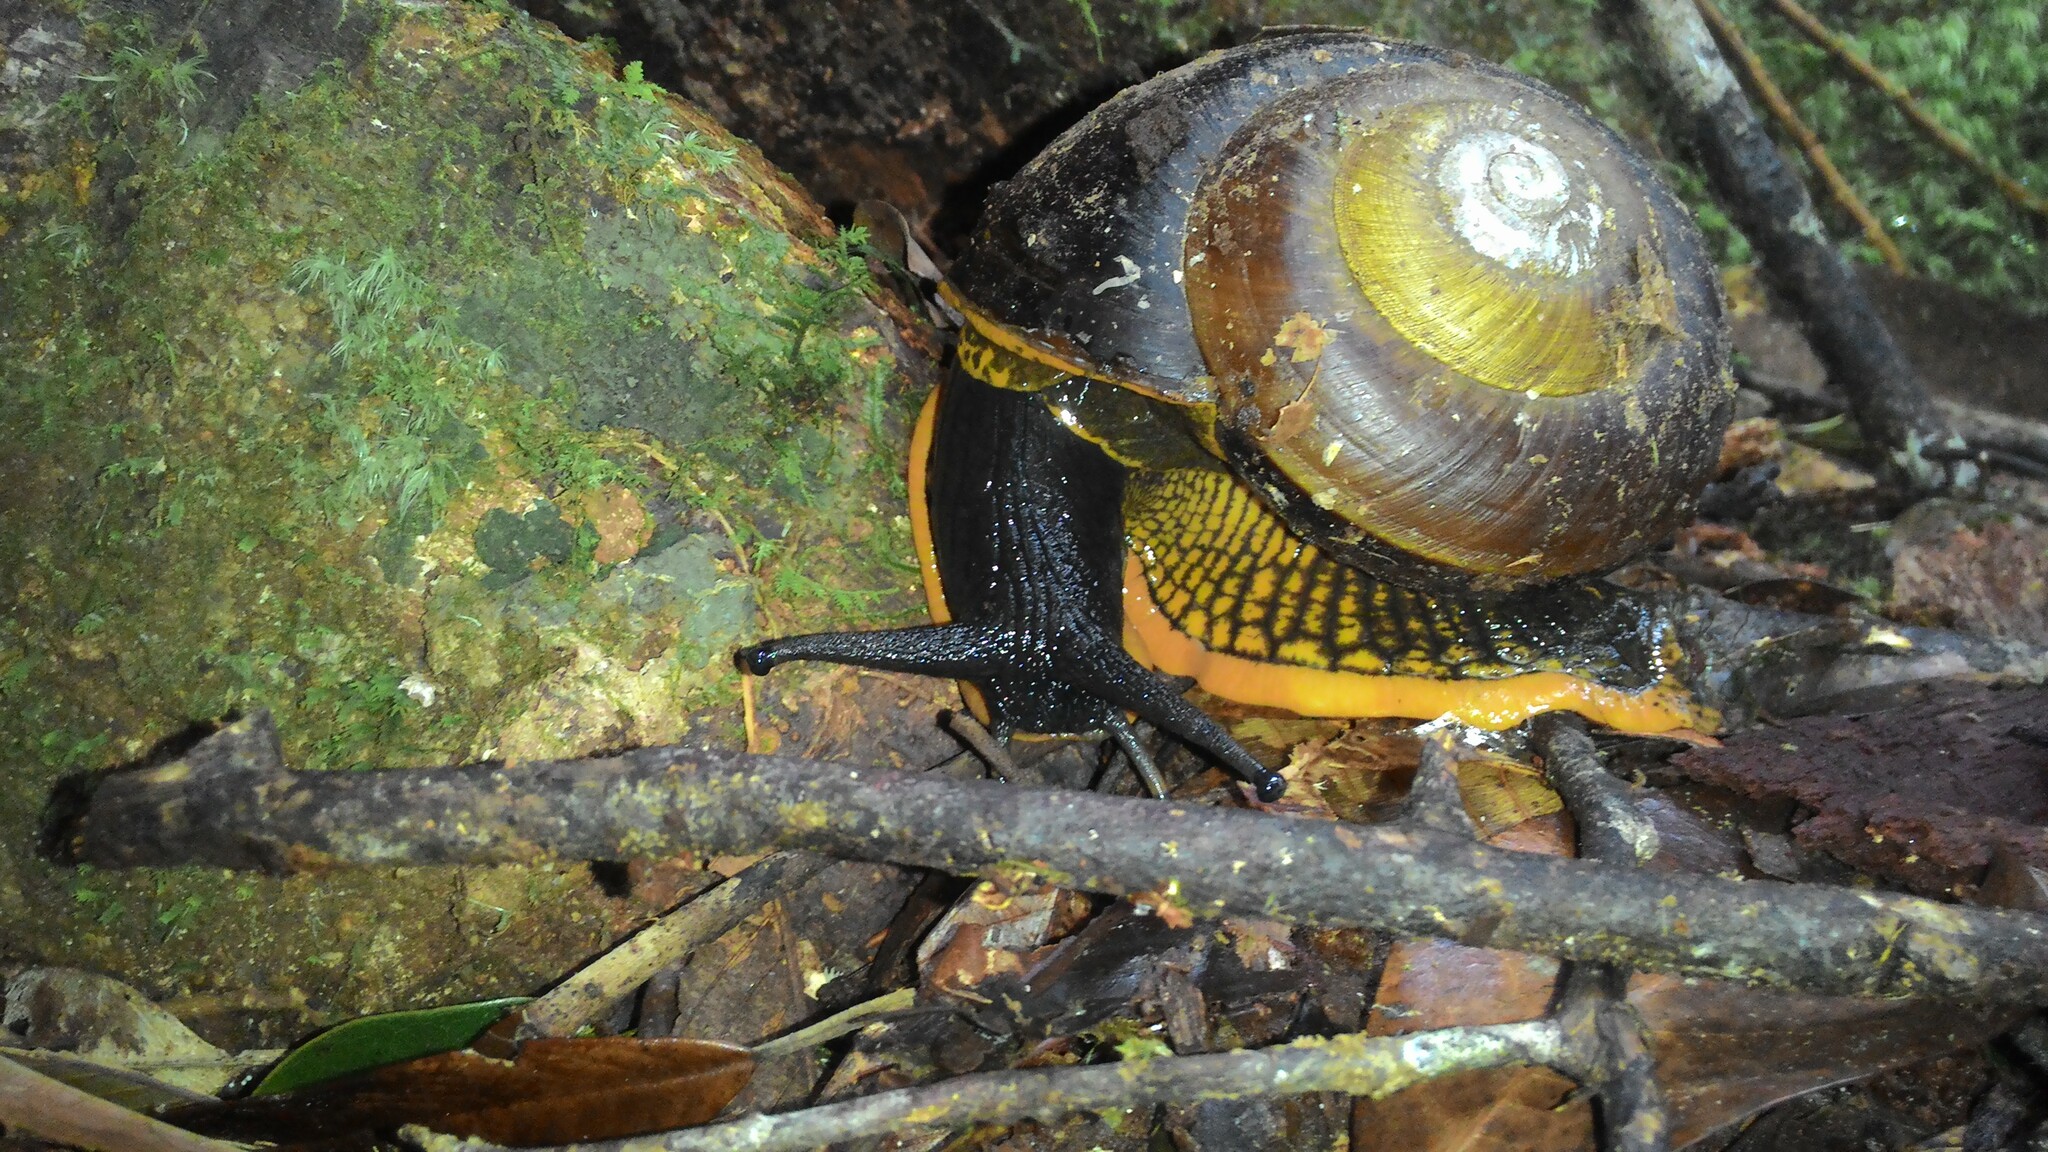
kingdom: Animalia
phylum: Mollusca
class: Gastropoda
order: Stylommatophora
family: Dyakiidae
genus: Bertia
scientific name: Bertia cambojiensis
